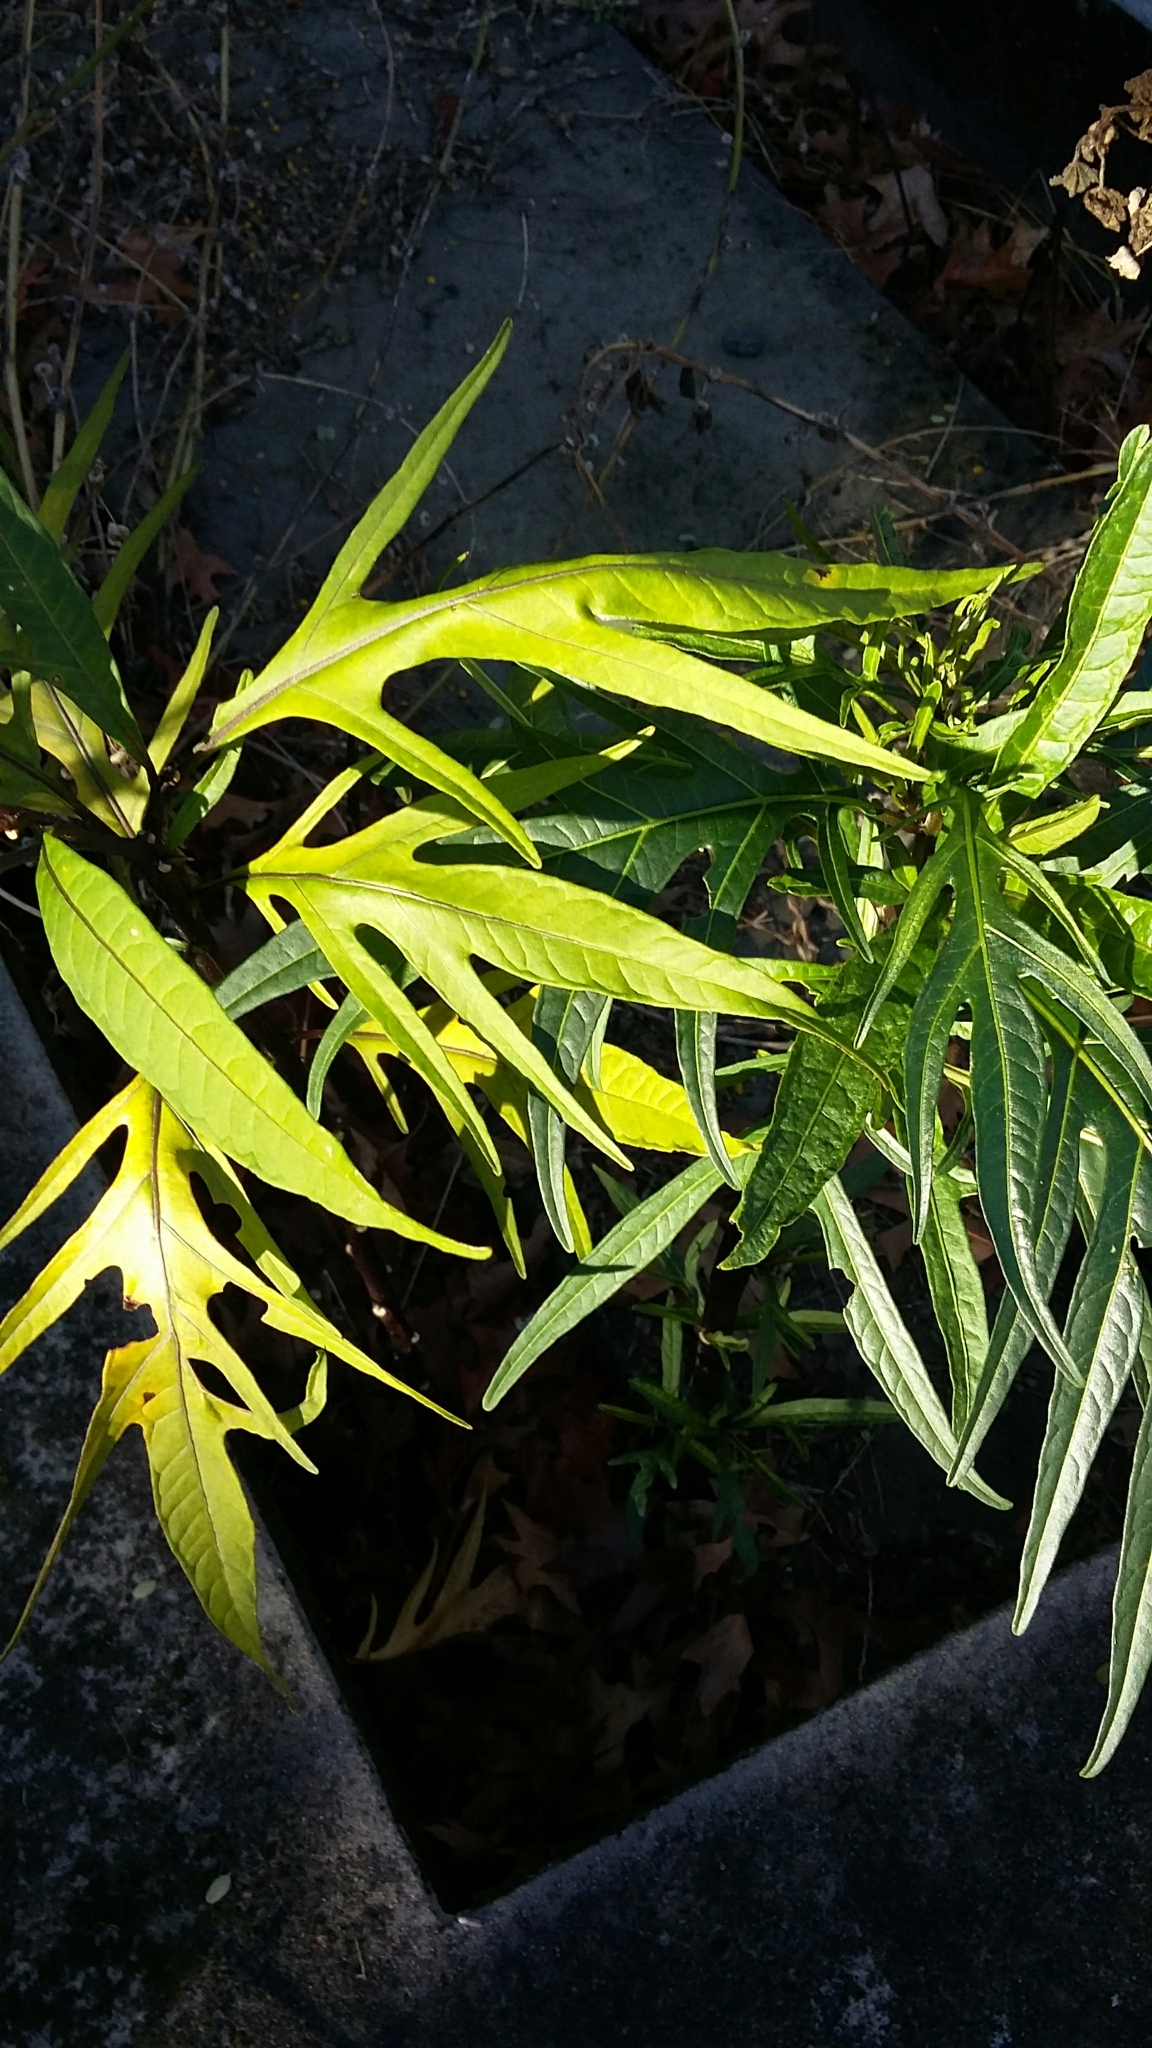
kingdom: Plantae
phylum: Tracheophyta
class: Magnoliopsida
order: Solanales
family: Solanaceae
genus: Solanum
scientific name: Solanum laciniatum
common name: Kangaroo-apple
